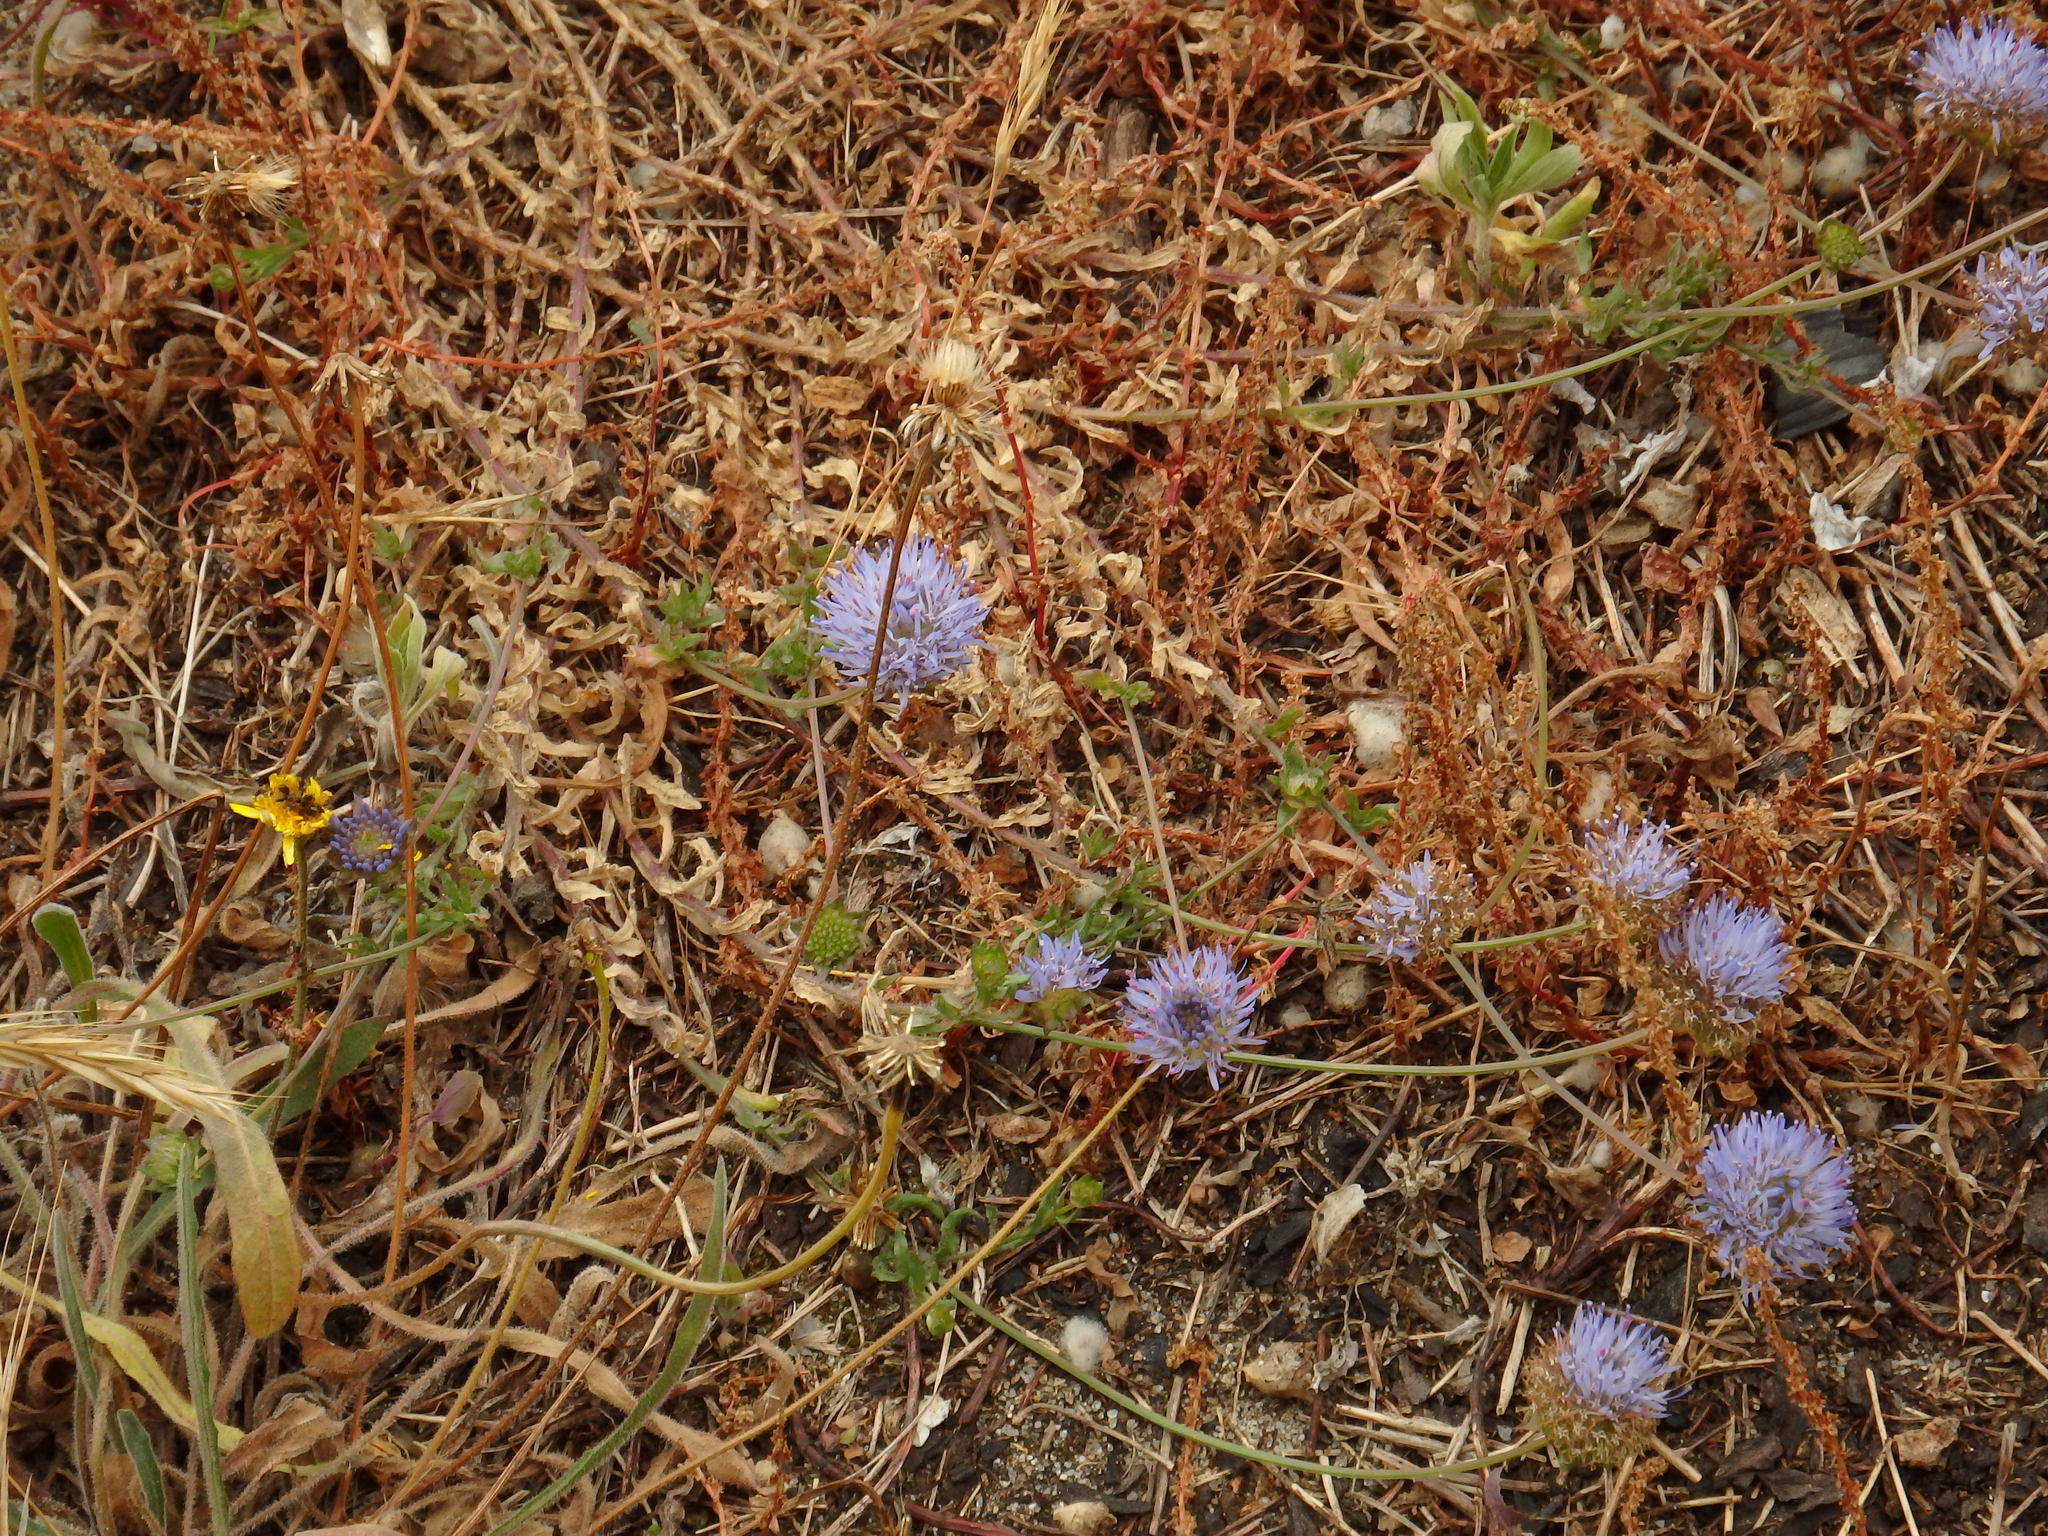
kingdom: Plantae
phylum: Tracheophyta
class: Magnoliopsida
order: Asterales
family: Campanulaceae
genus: Jasione
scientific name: Jasione maritima
